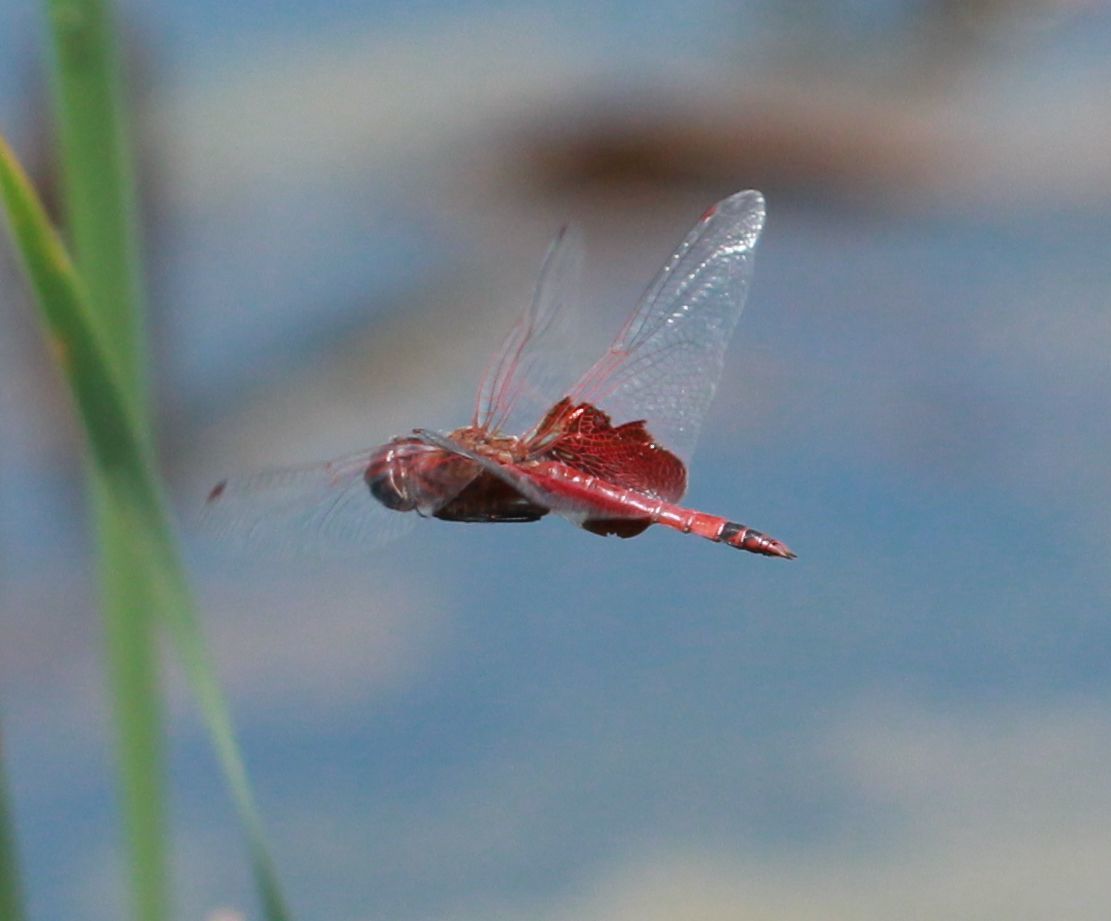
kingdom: Animalia
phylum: Arthropoda
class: Insecta
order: Odonata
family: Libellulidae
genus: Tramea
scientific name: Tramea carolina
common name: Carolina saddlebags
